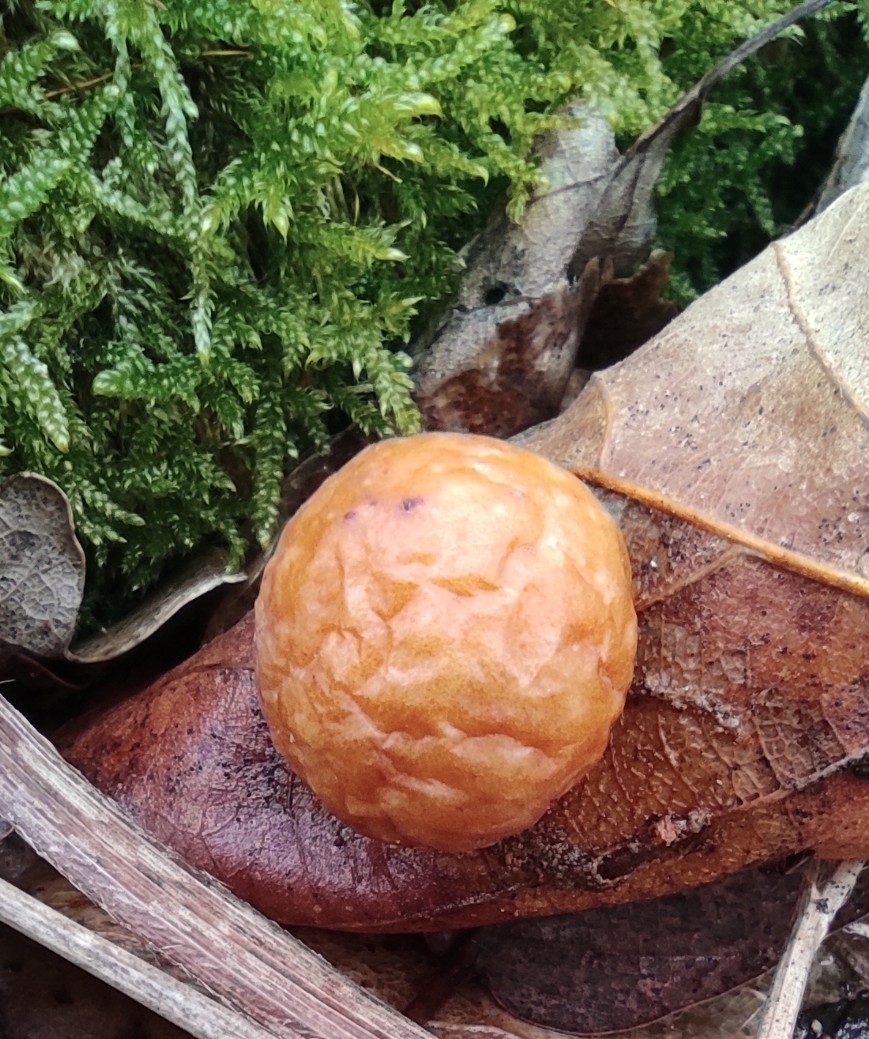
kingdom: Animalia
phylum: Arthropoda
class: Insecta
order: Hymenoptera
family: Cynipidae
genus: Cynips
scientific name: Cynips quercusfolii
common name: Cherry gall
